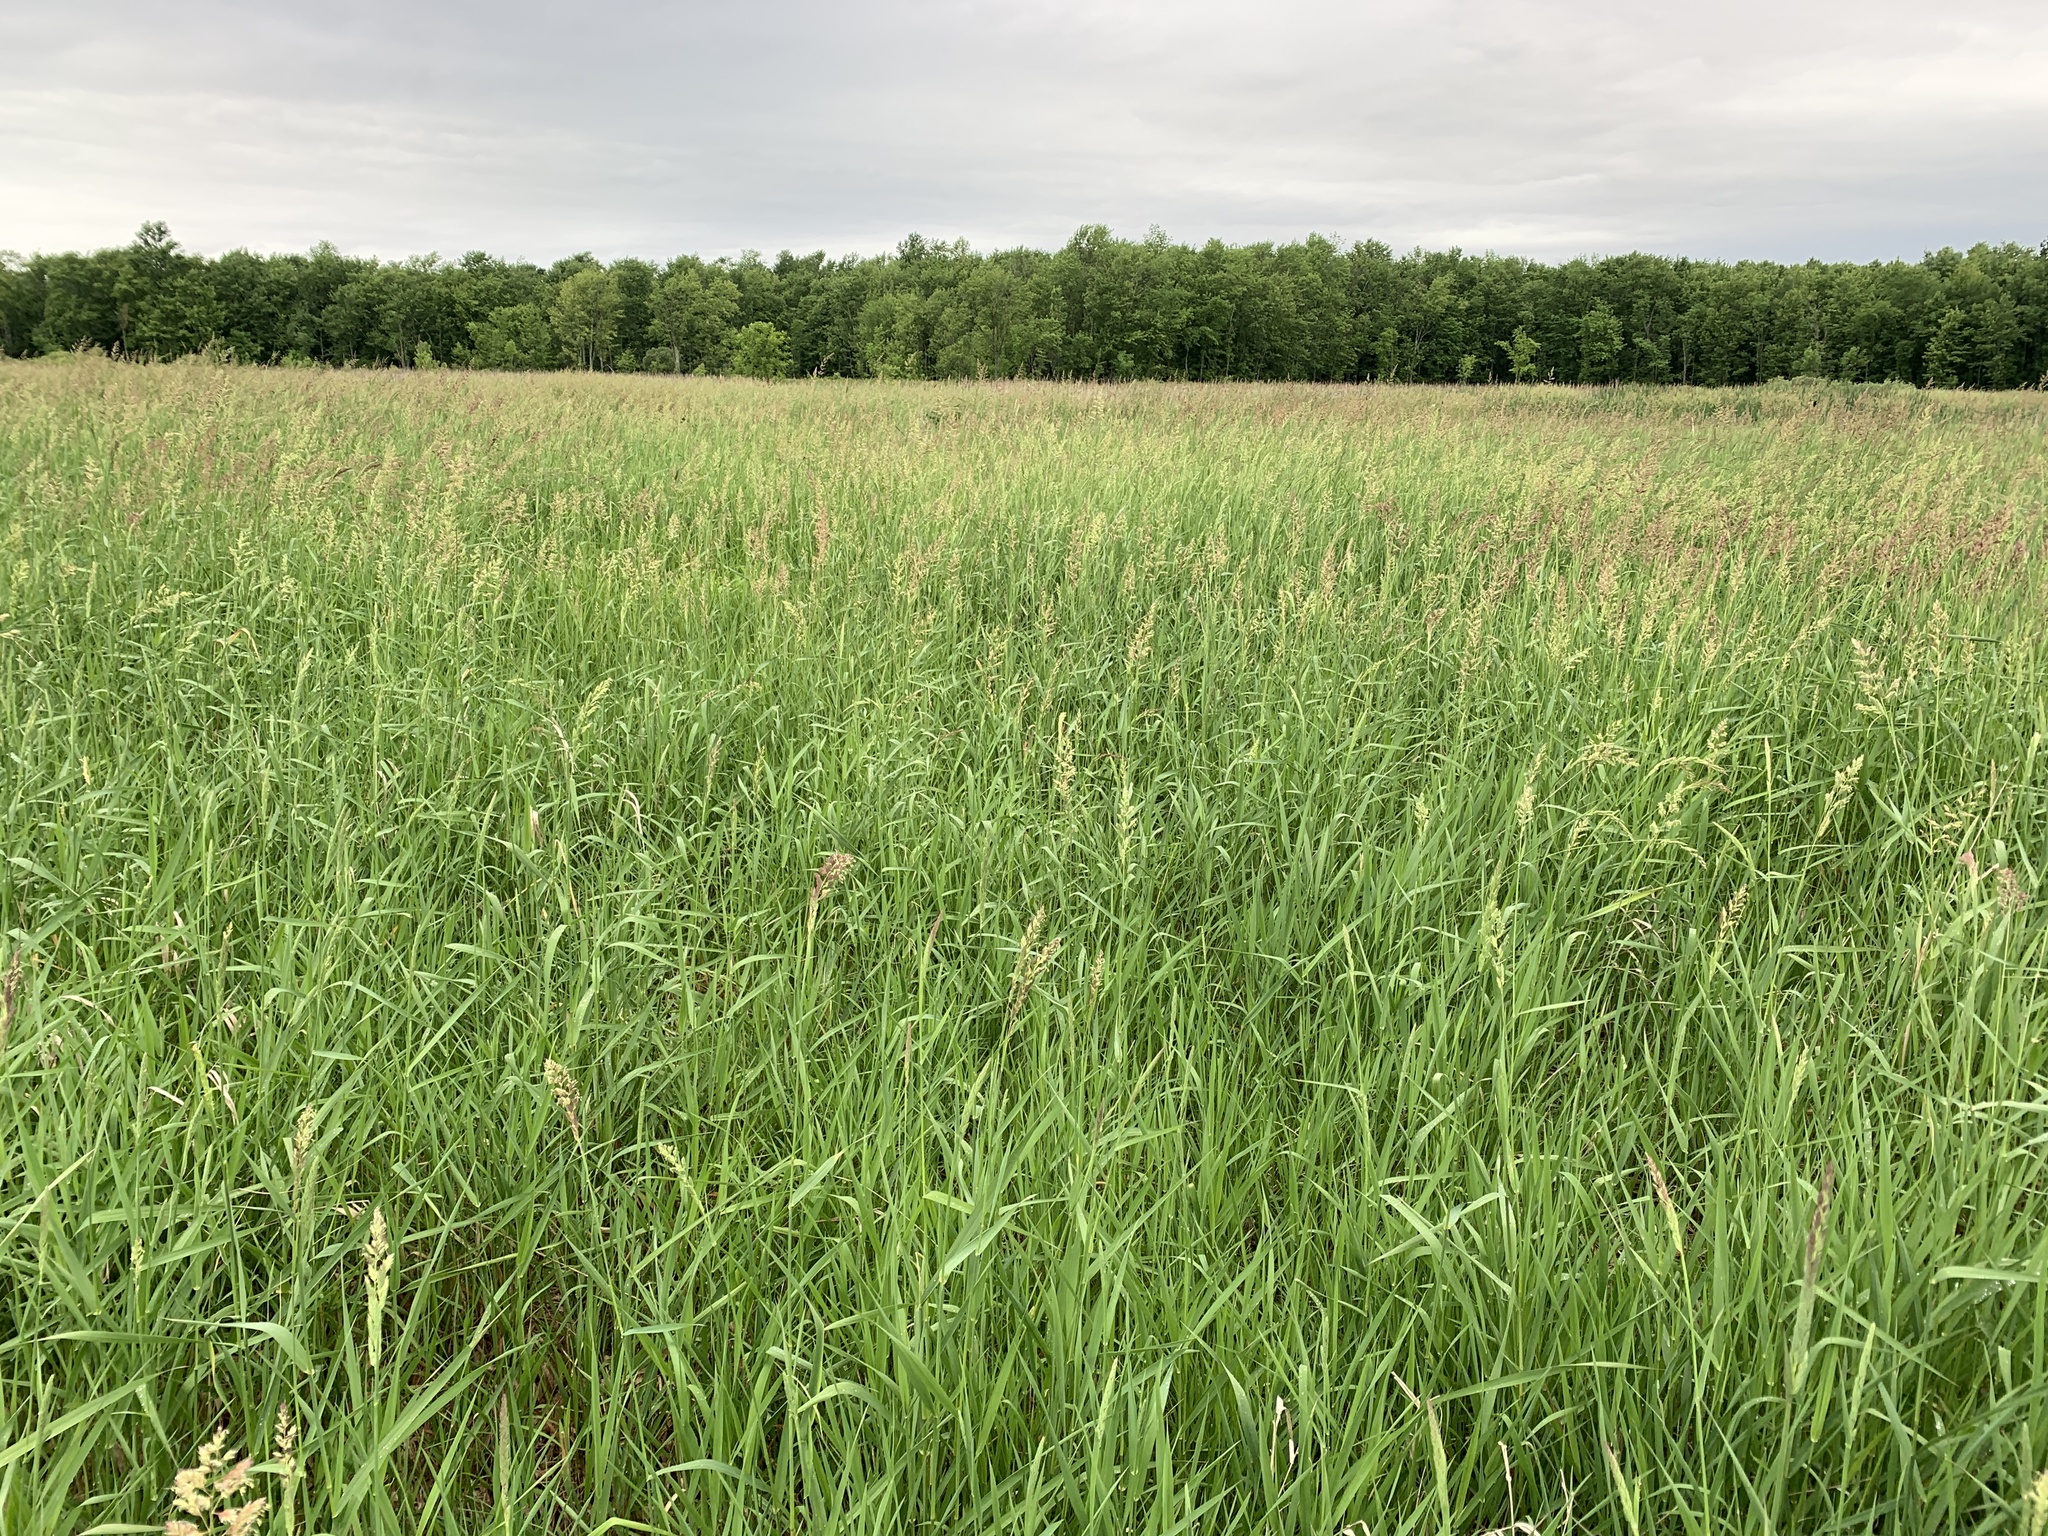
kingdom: Plantae
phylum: Tracheophyta
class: Liliopsida
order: Poales
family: Poaceae
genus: Phalaris
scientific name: Phalaris arundinacea
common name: Reed canary-grass
